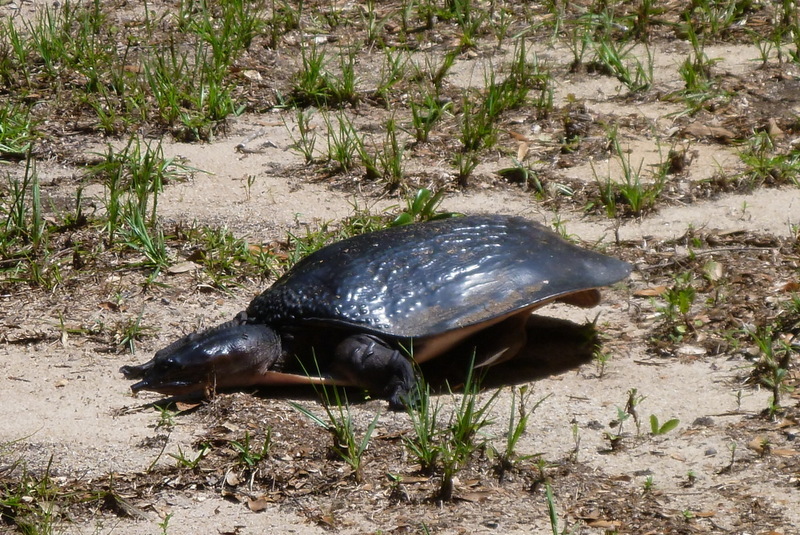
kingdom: Animalia
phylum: Chordata
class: Testudines
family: Trionychidae
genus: Apalone
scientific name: Apalone ferox
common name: Florida softshell turtle
